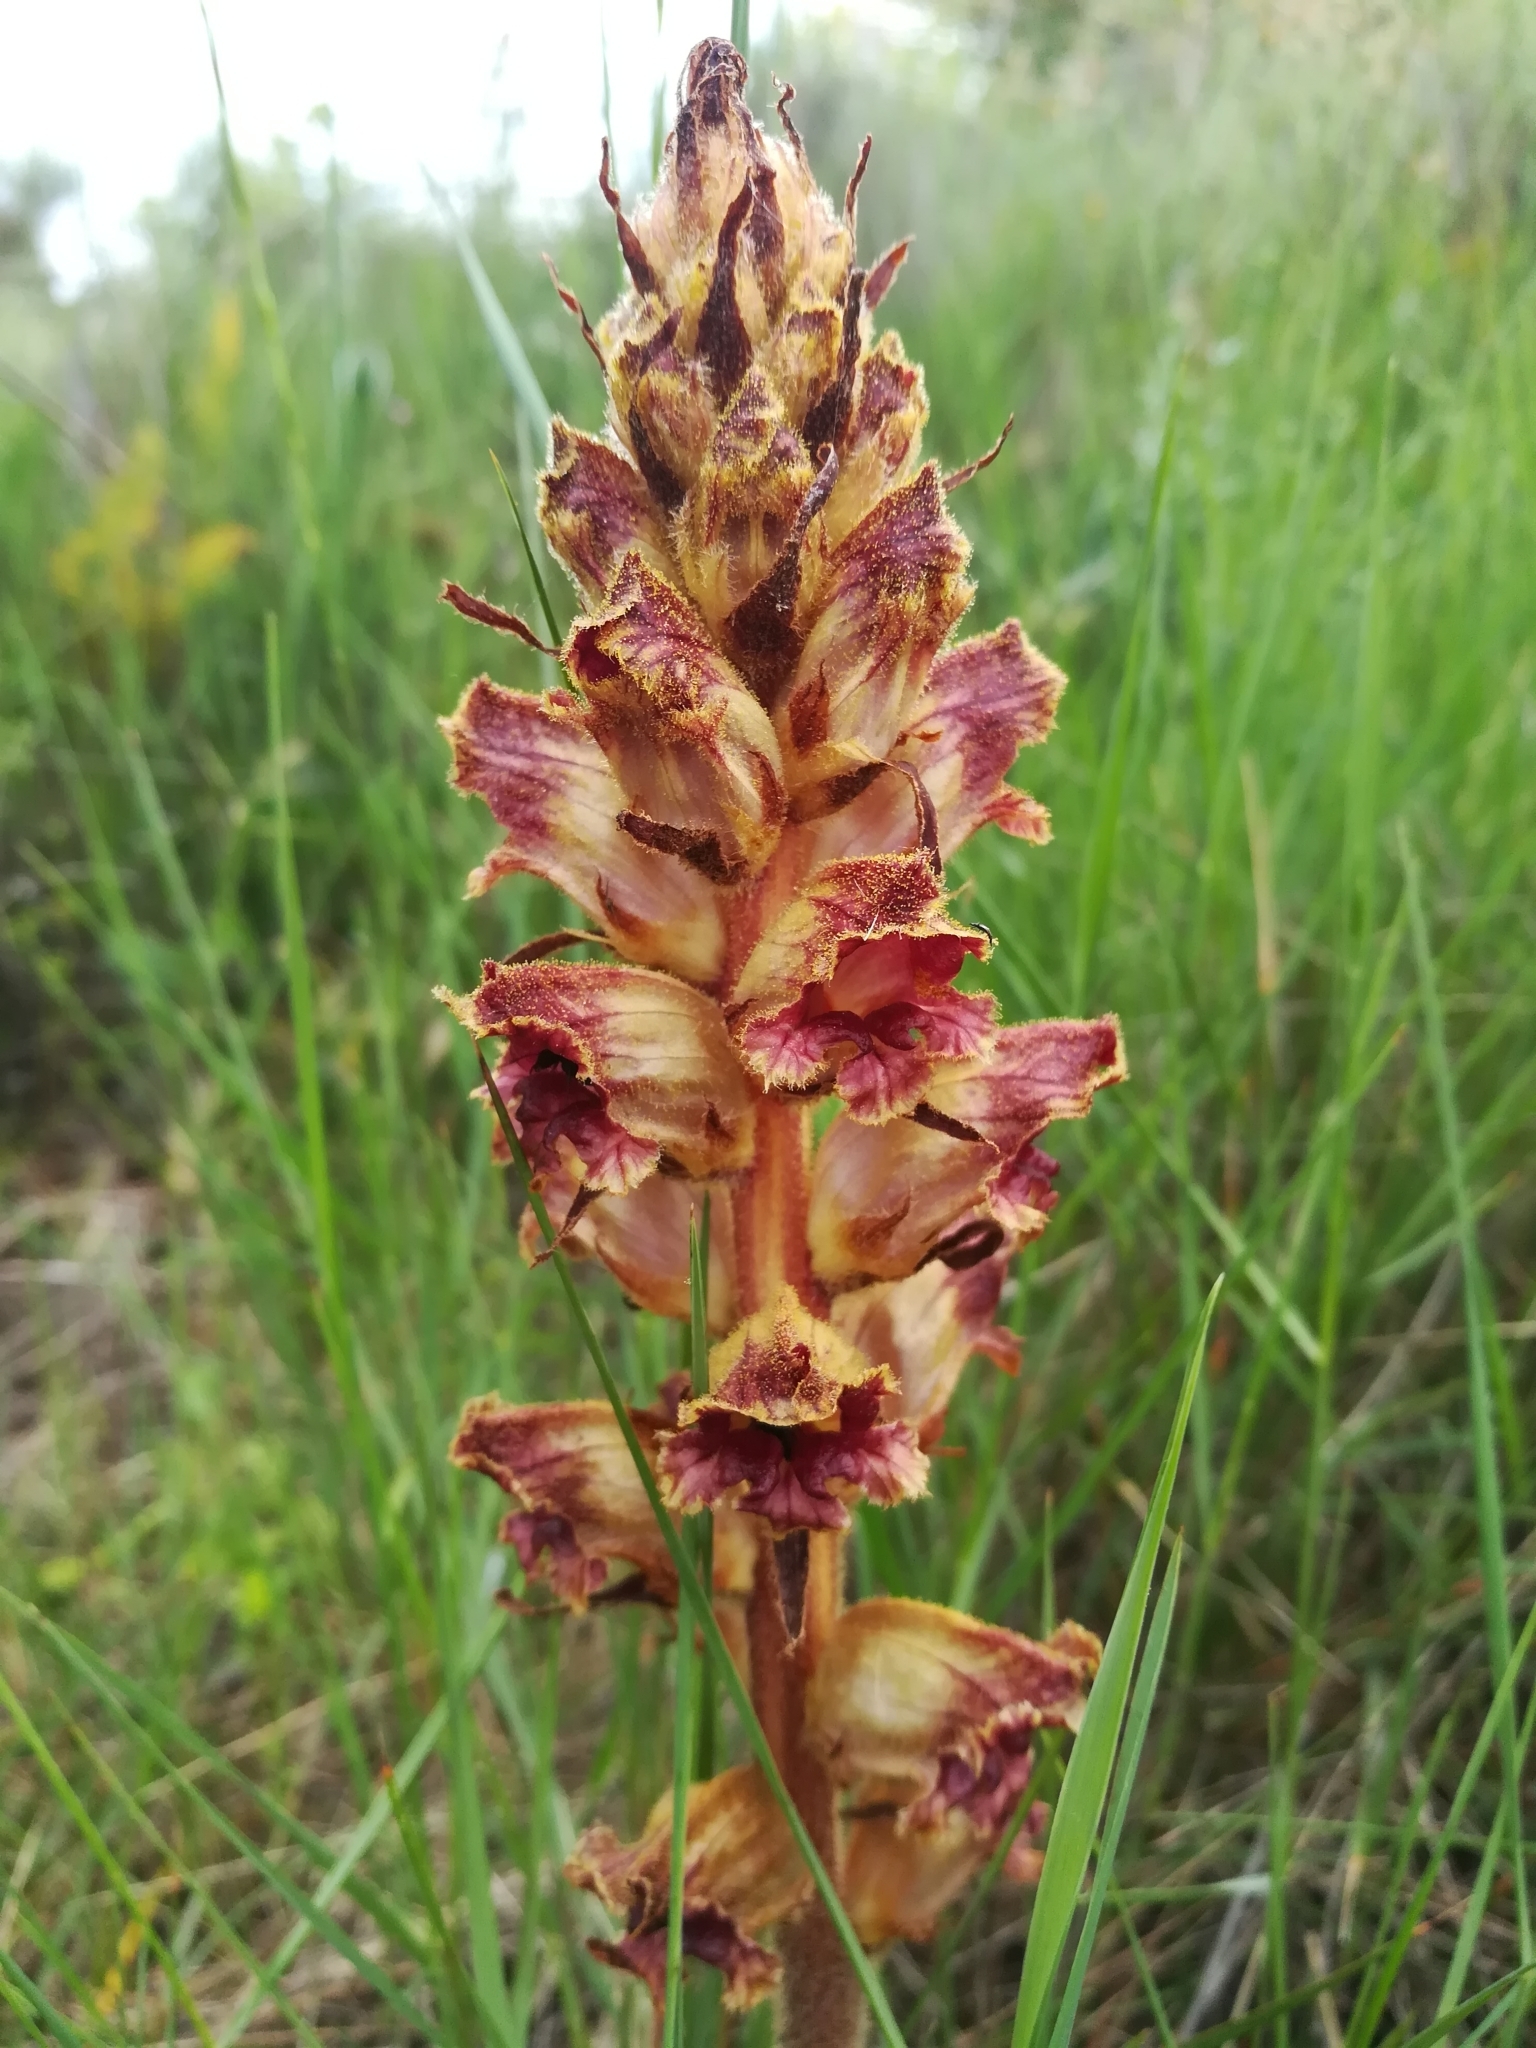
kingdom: Plantae
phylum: Tracheophyta
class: Magnoliopsida
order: Lamiales
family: Orobanchaceae
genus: Orobanche
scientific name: Orobanche gracilis
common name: Slender broomrape
